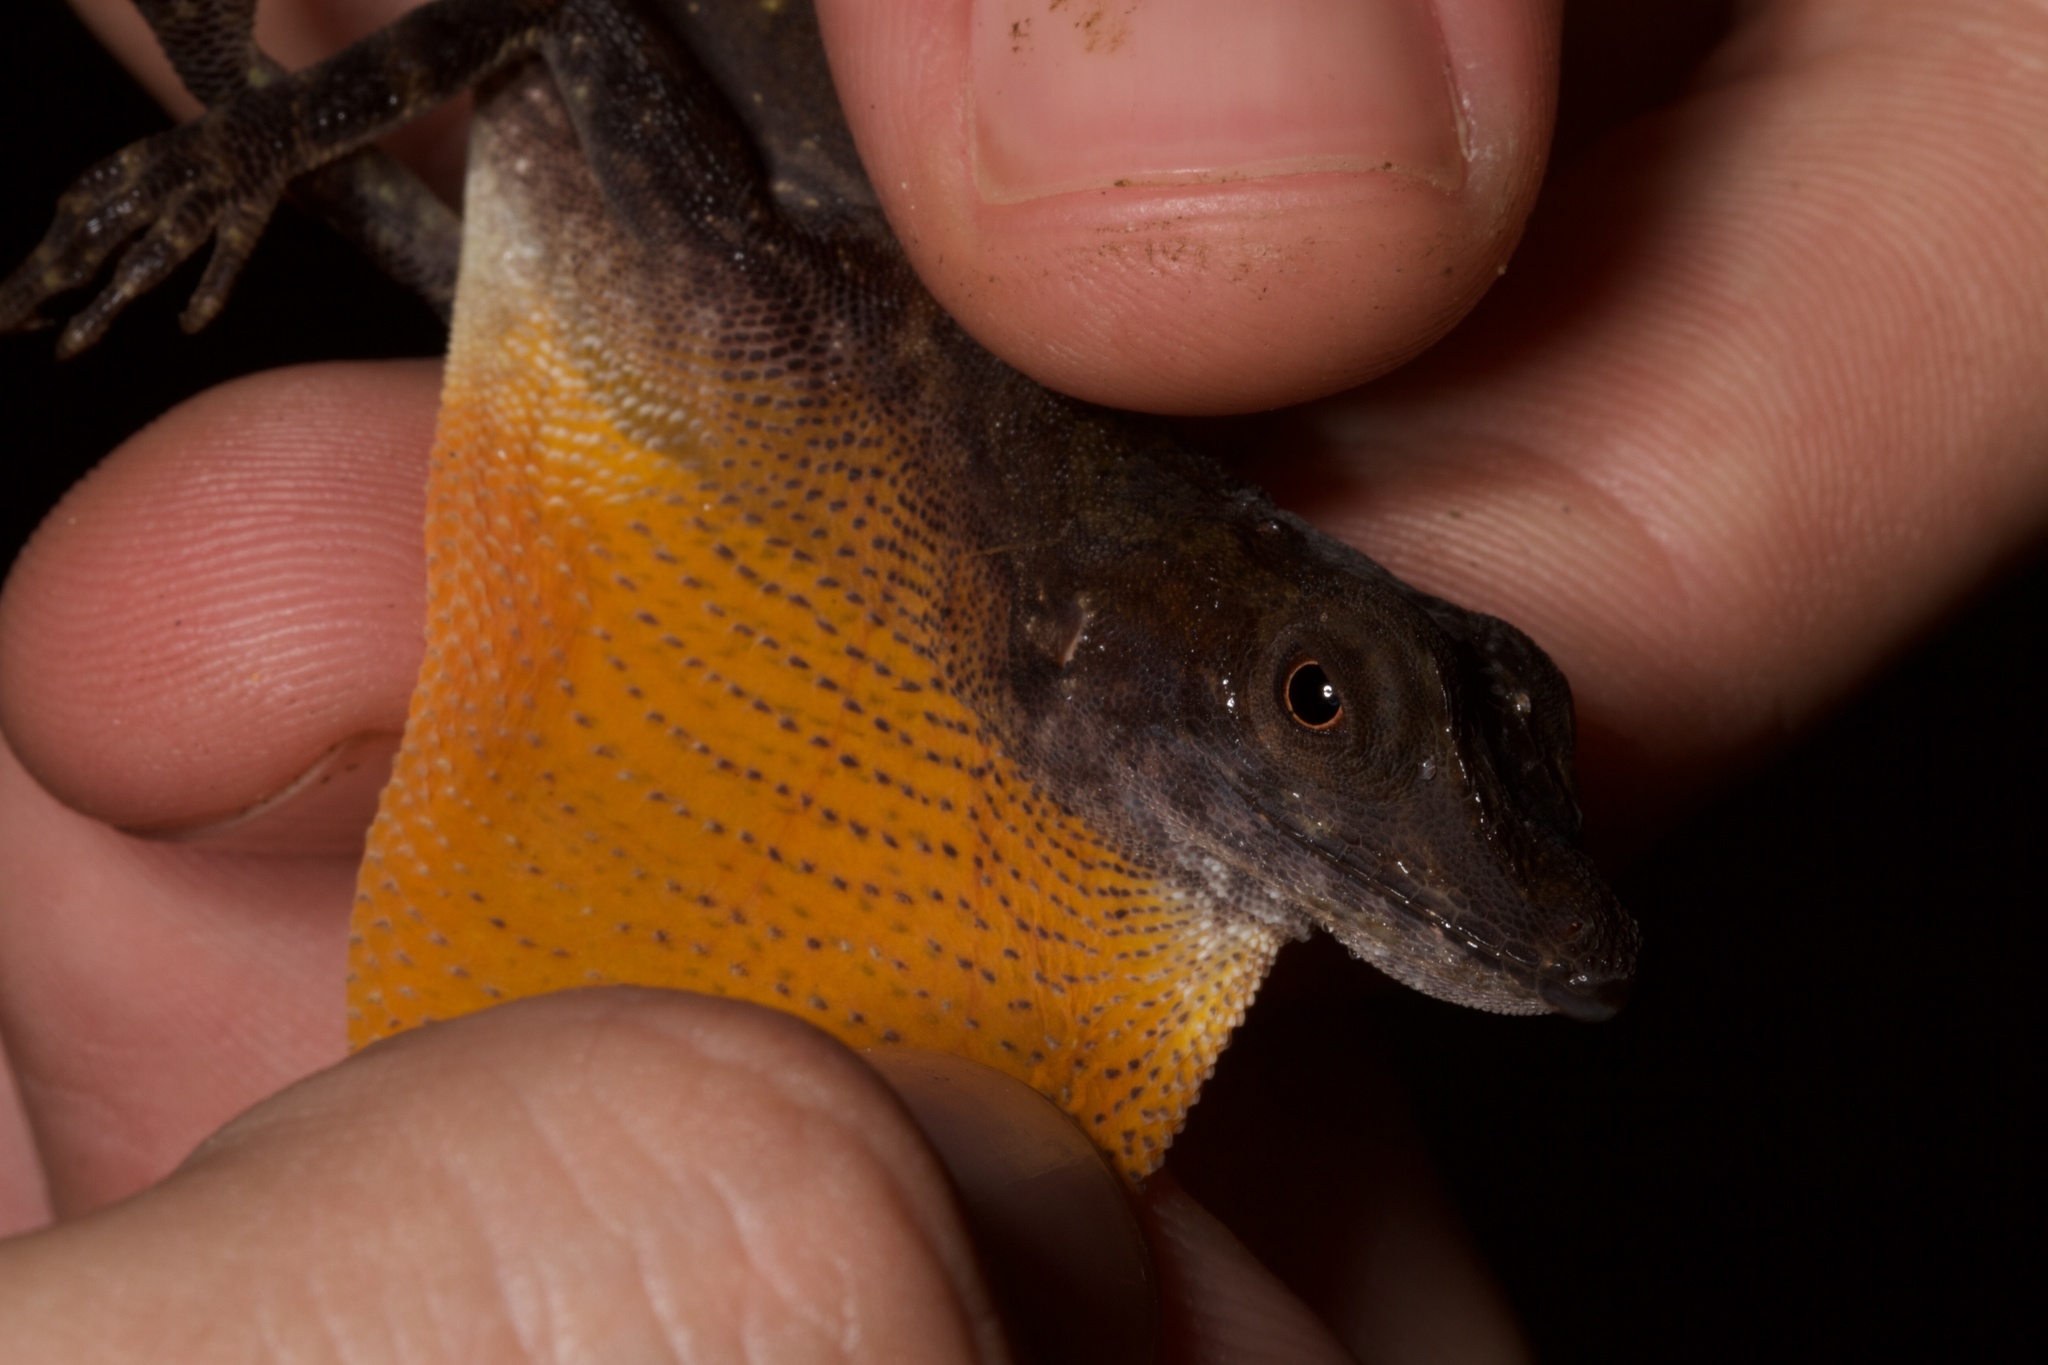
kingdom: Animalia
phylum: Chordata
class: Squamata
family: Dactyloidae
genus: Anolis
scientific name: Anolis lionotus
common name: Lion anole
